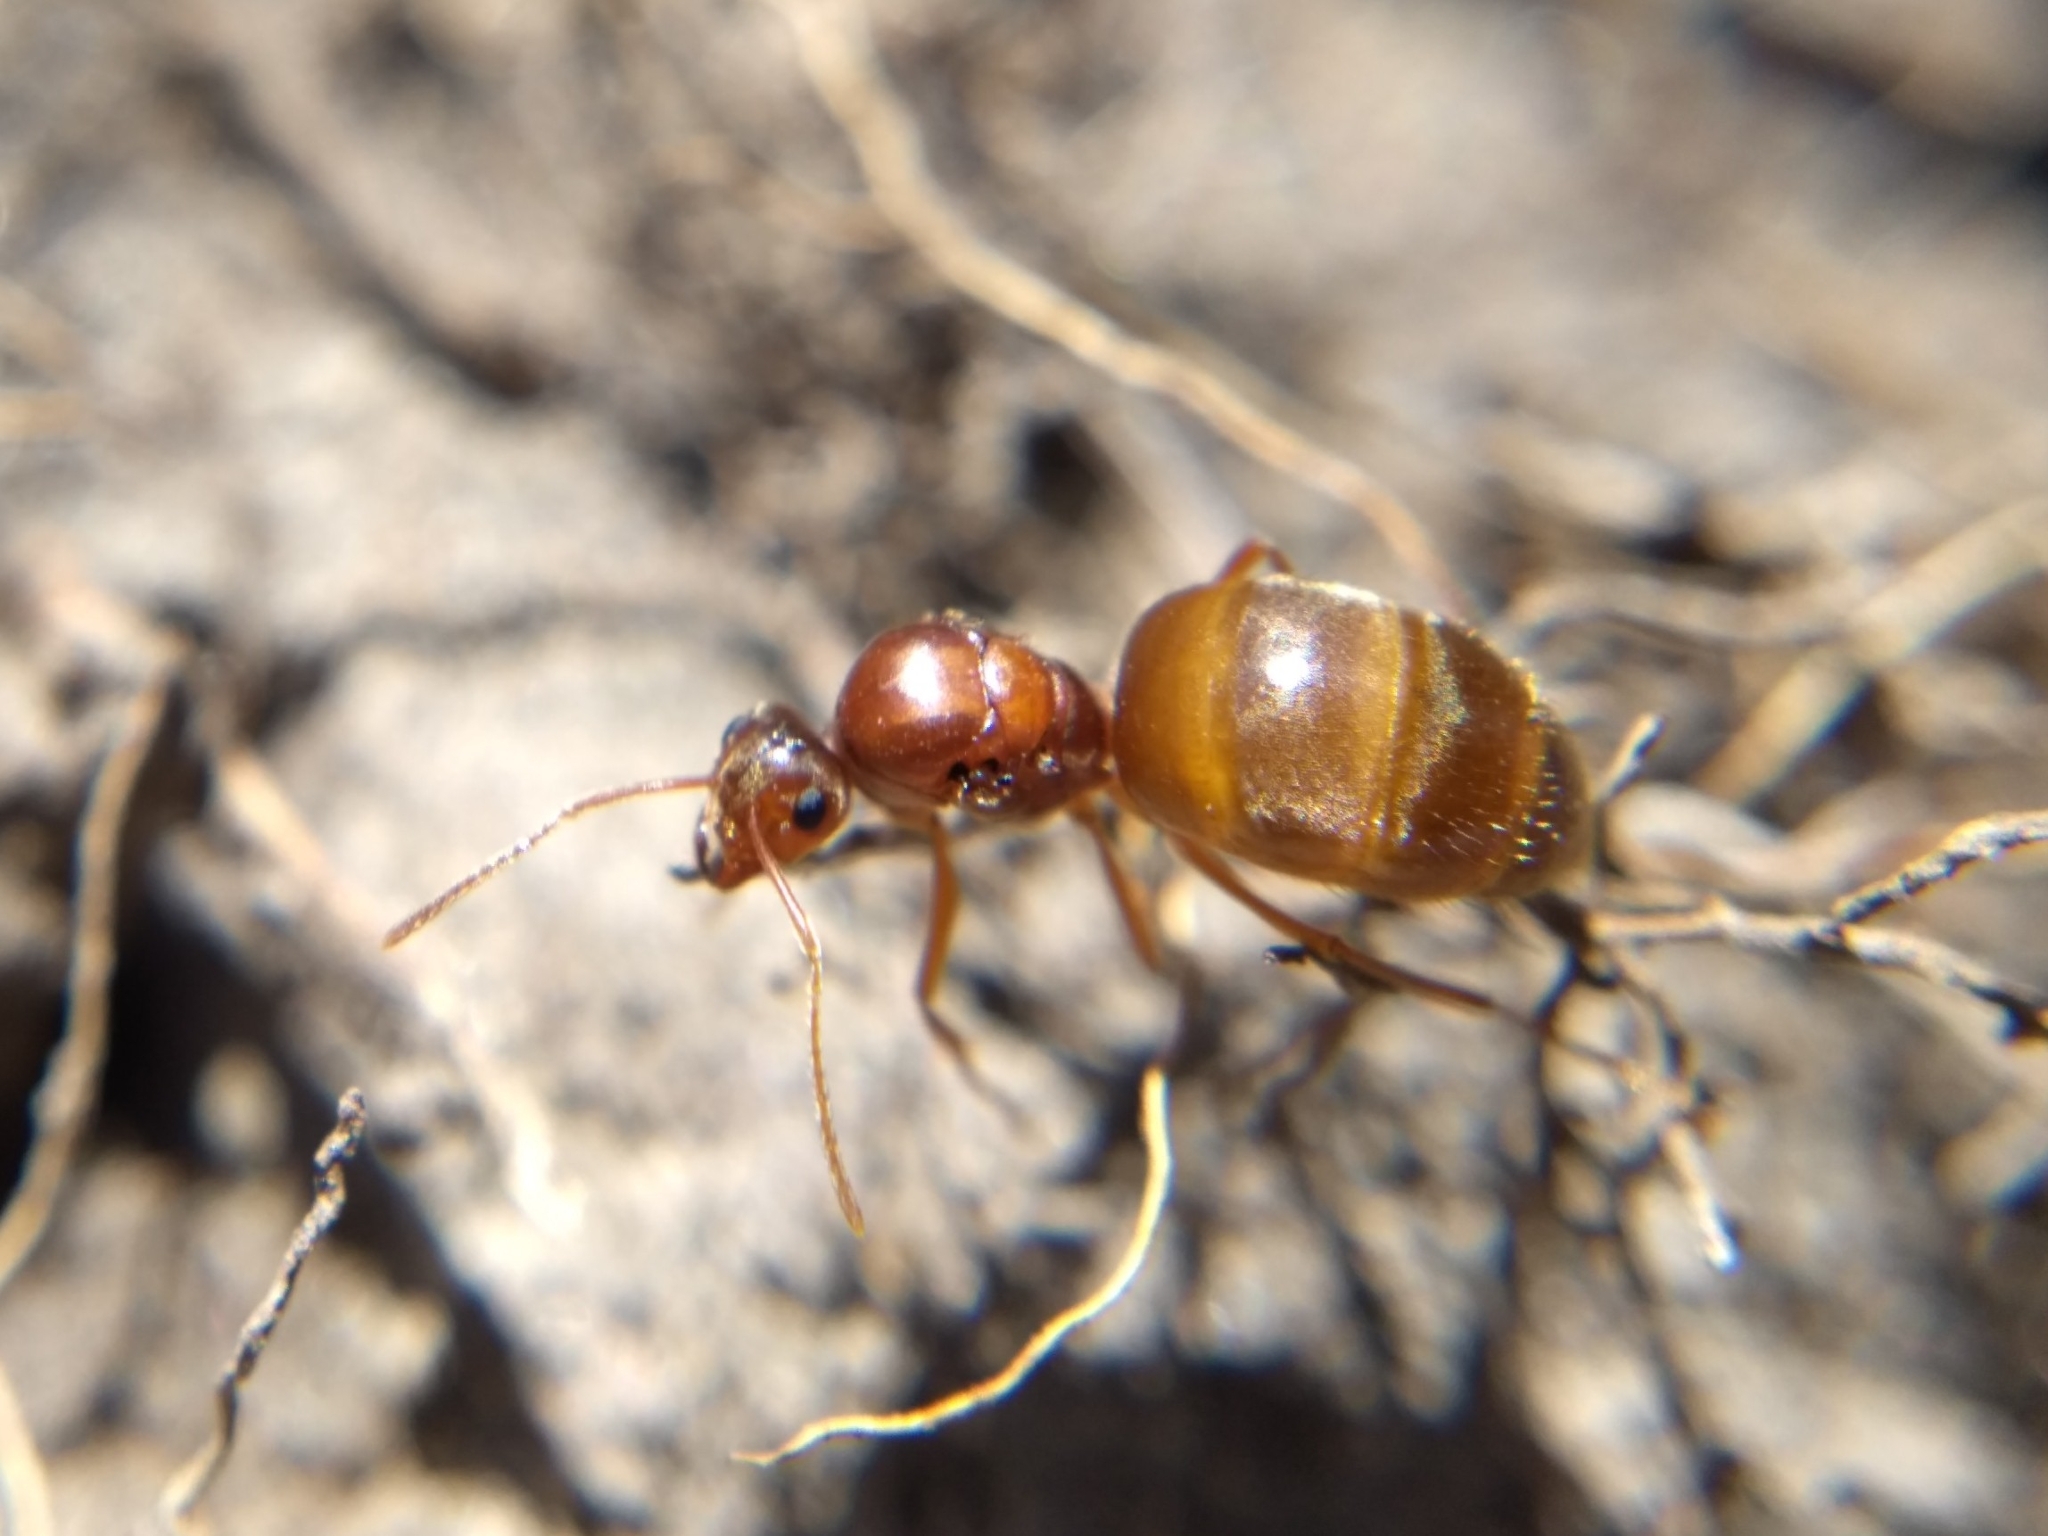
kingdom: Animalia
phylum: Arthropoda
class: Insecta
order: Hymenoptera
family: Formicidae
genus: Prenolepis
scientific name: Prenolepis imparis
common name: Small honey ant
